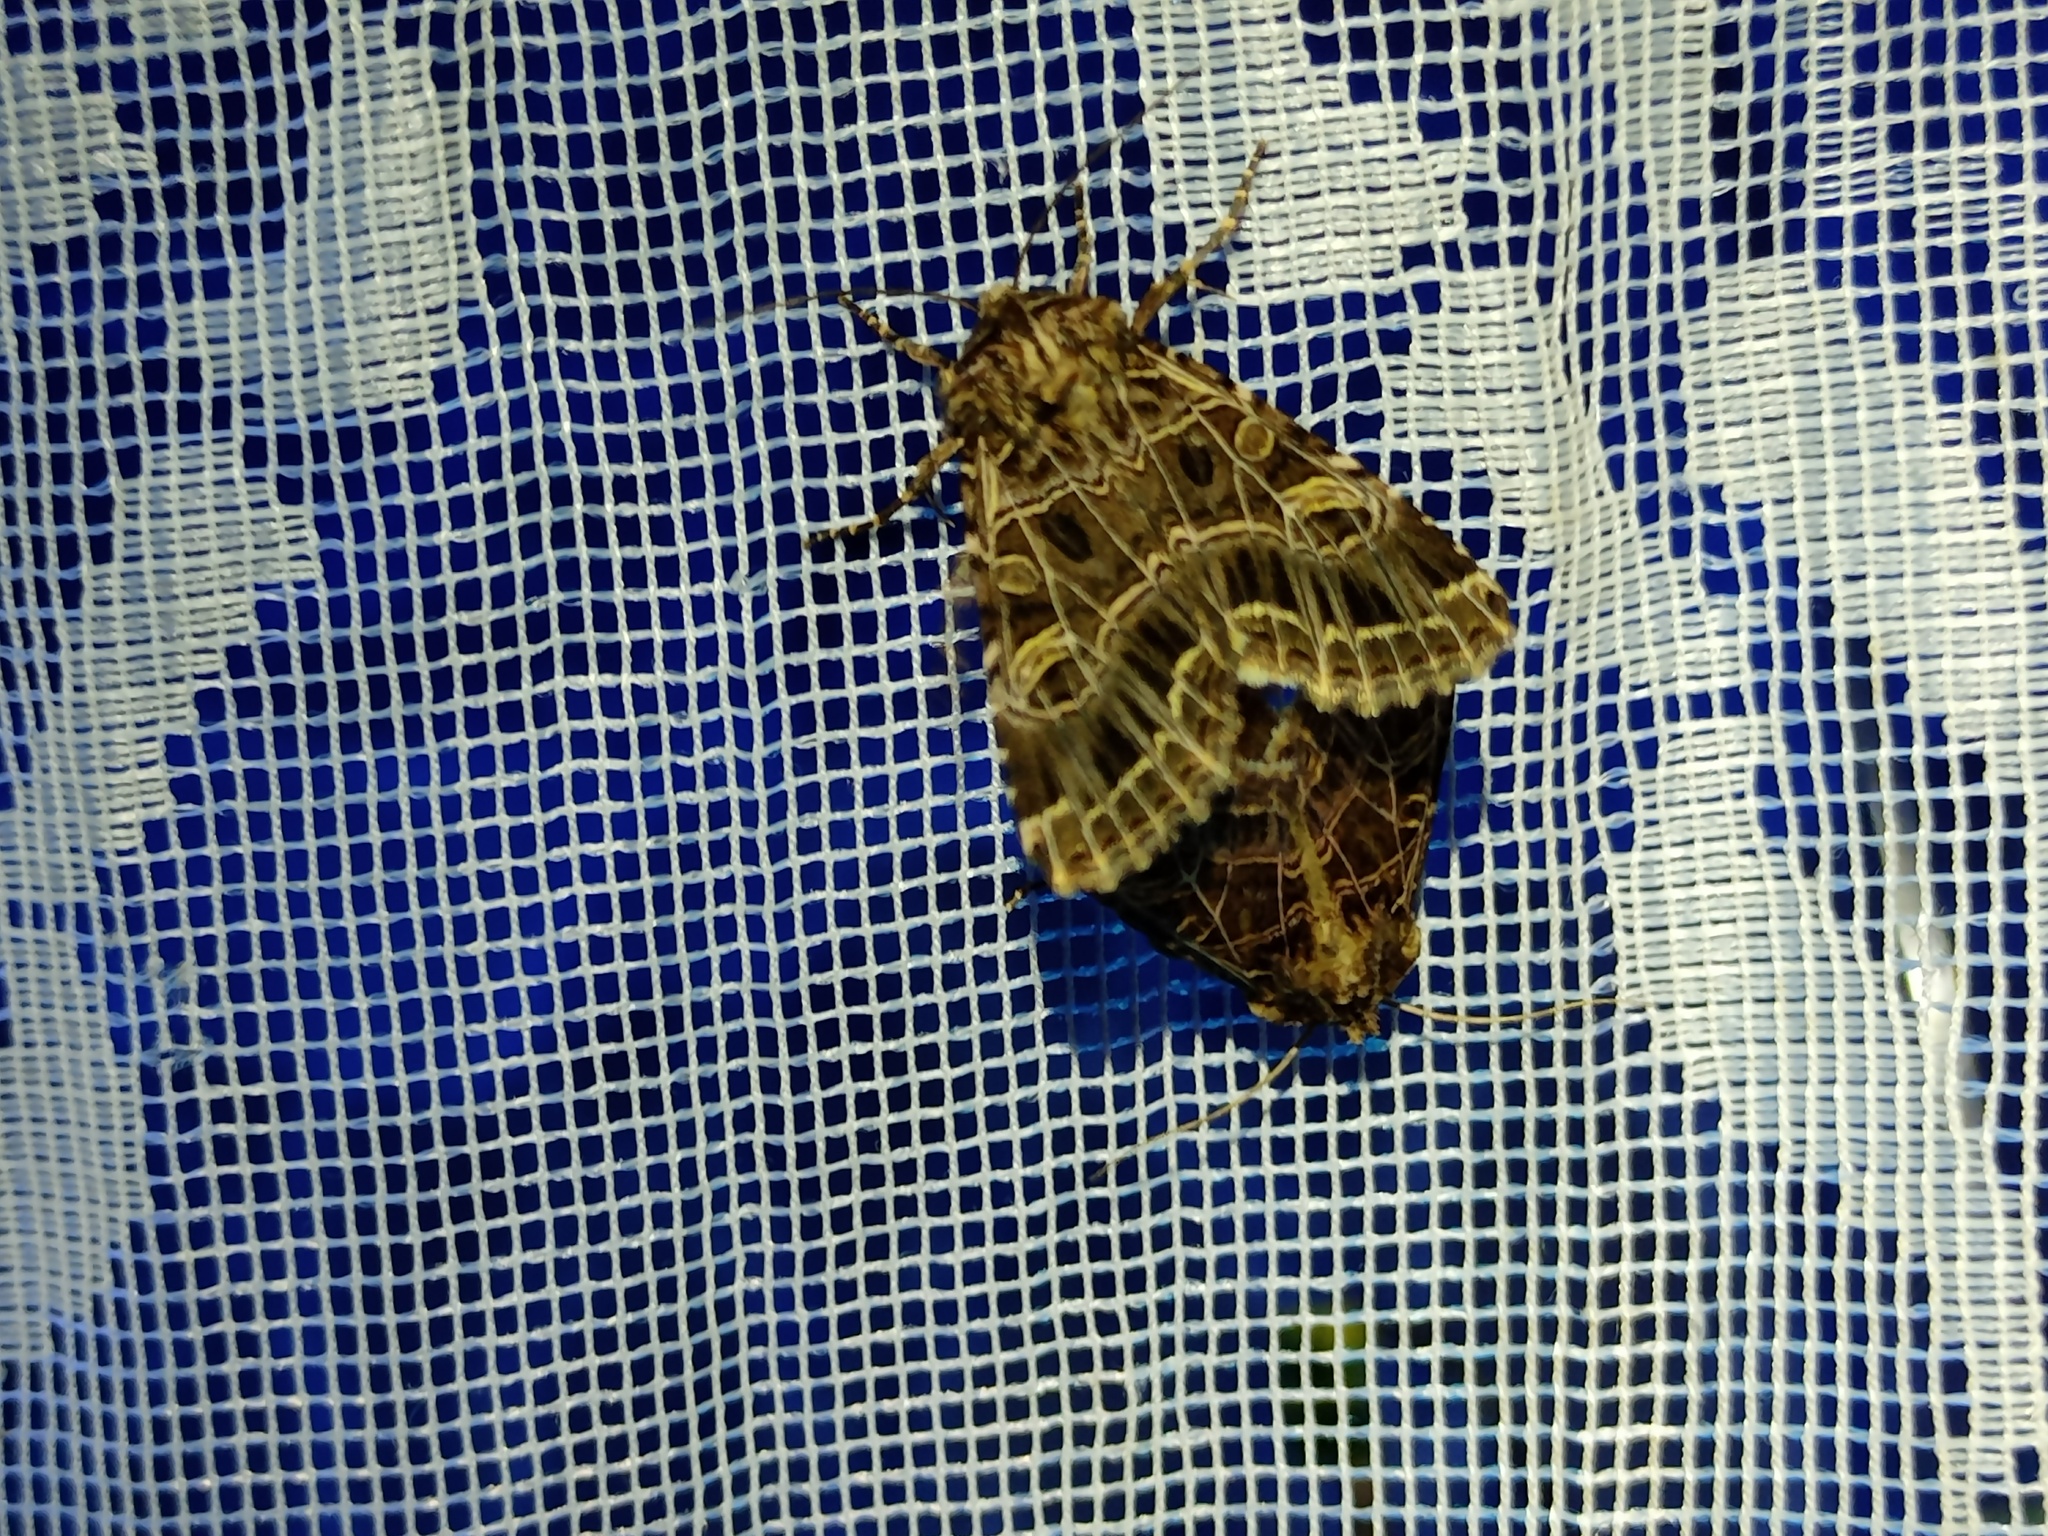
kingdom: Animalia
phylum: Arthropoda
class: Insecta
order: Lepidoptera
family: Noctuidae
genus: Sideridis
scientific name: Sideridis reticulata
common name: Bordered gothic
